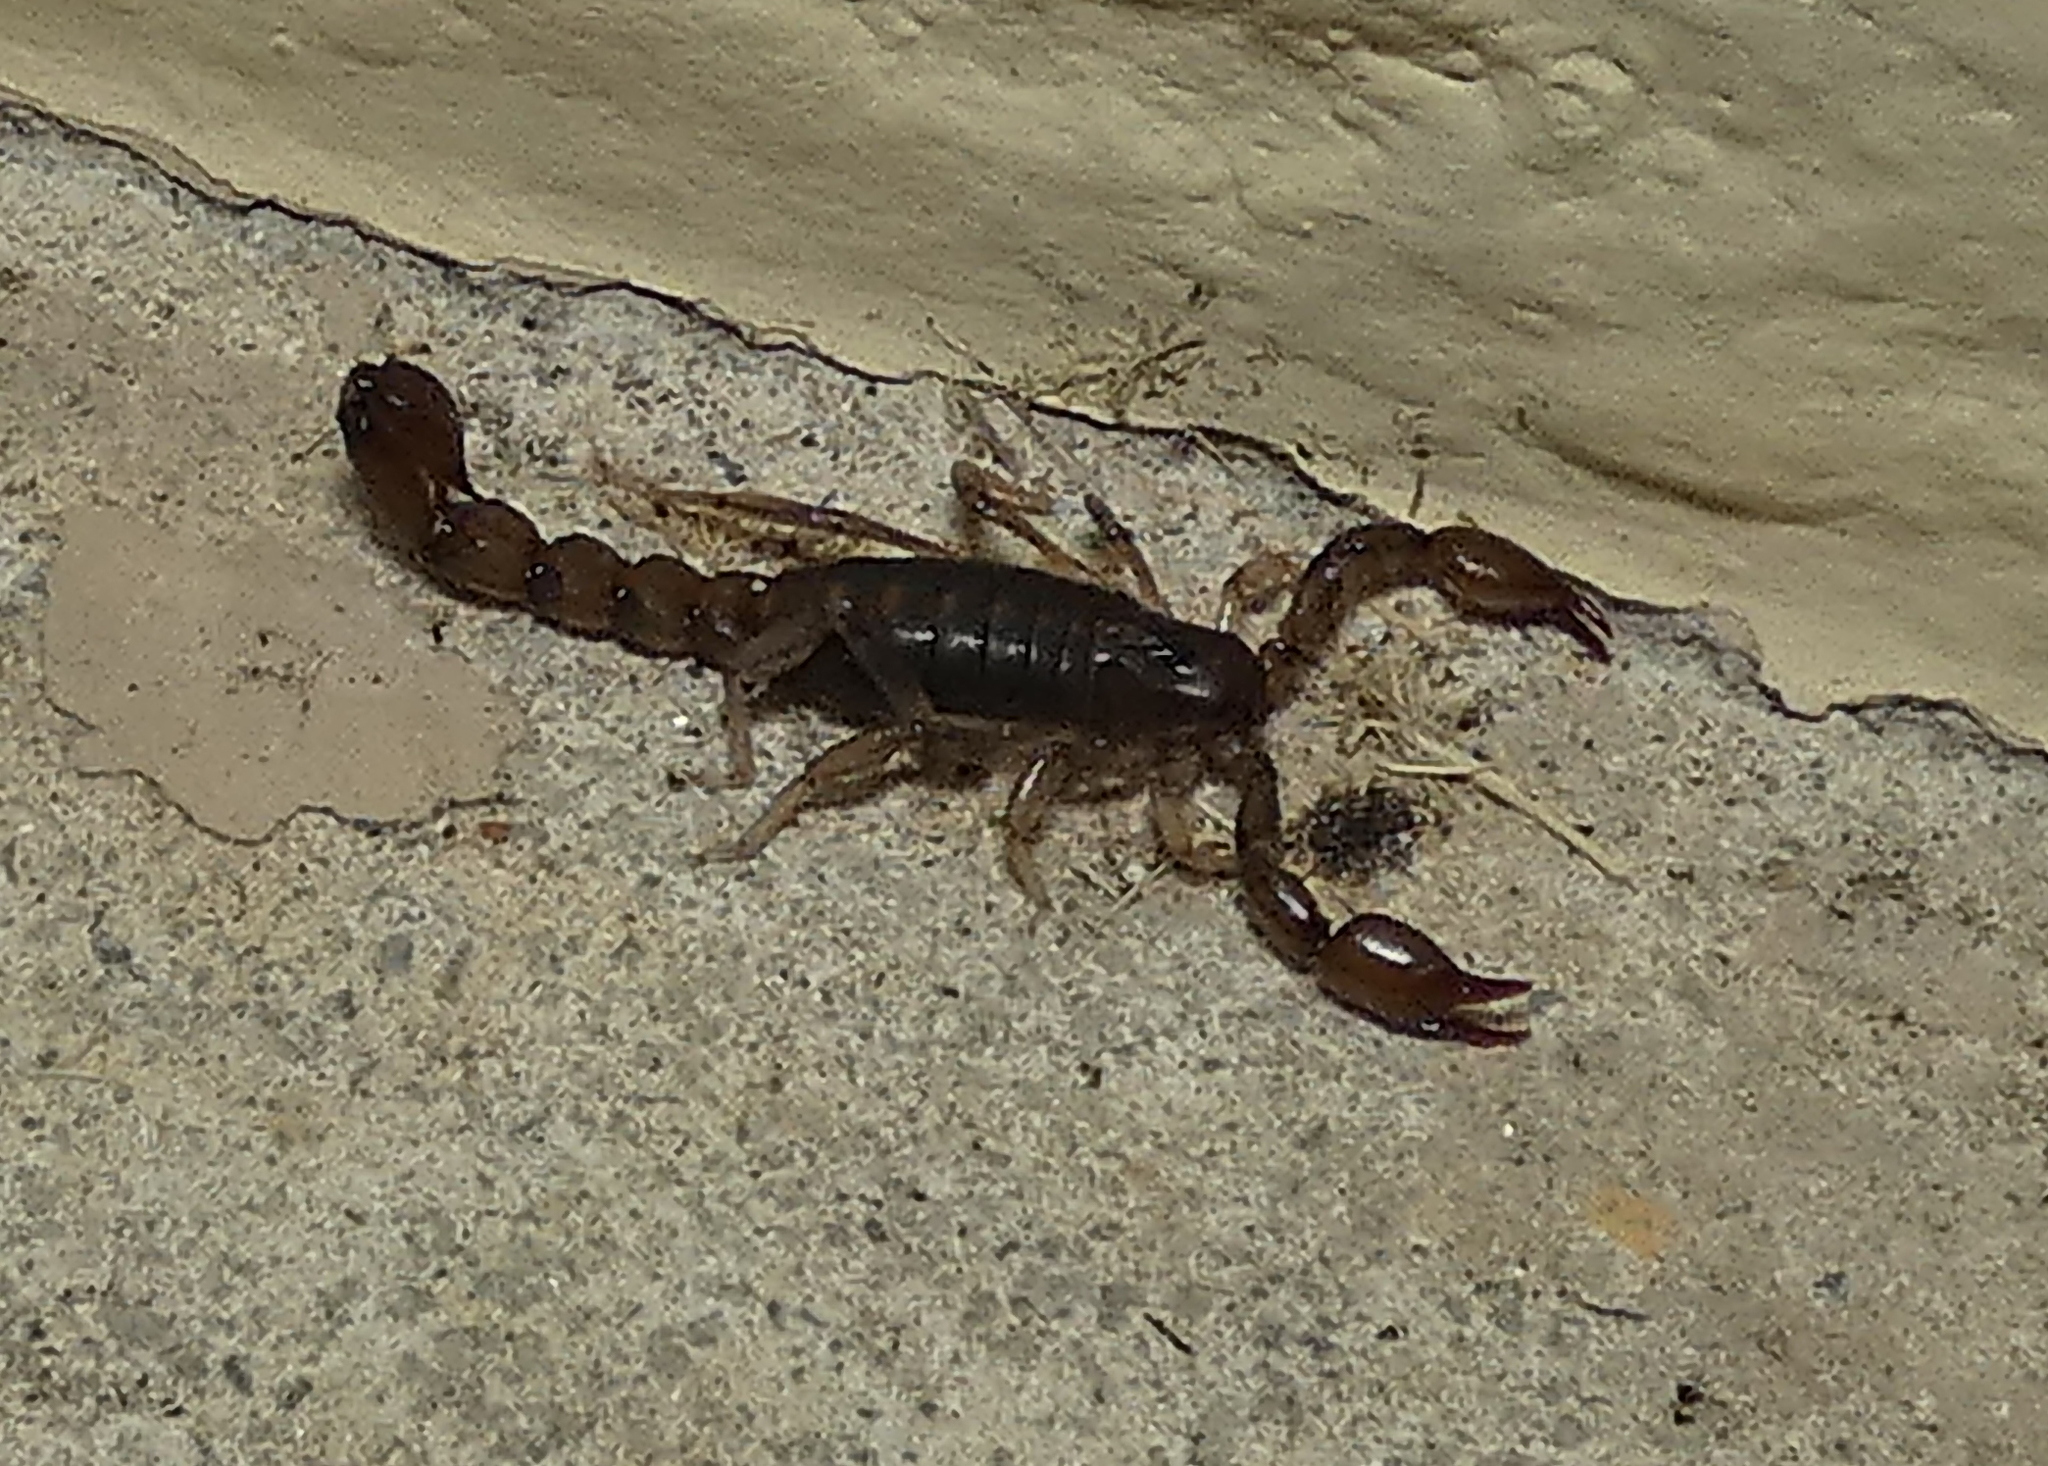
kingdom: Animalia
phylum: Arthropoda
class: Arachnida
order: Scorpiones
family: Bothriuridae
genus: Bothriurus
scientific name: Bothriurus asper
